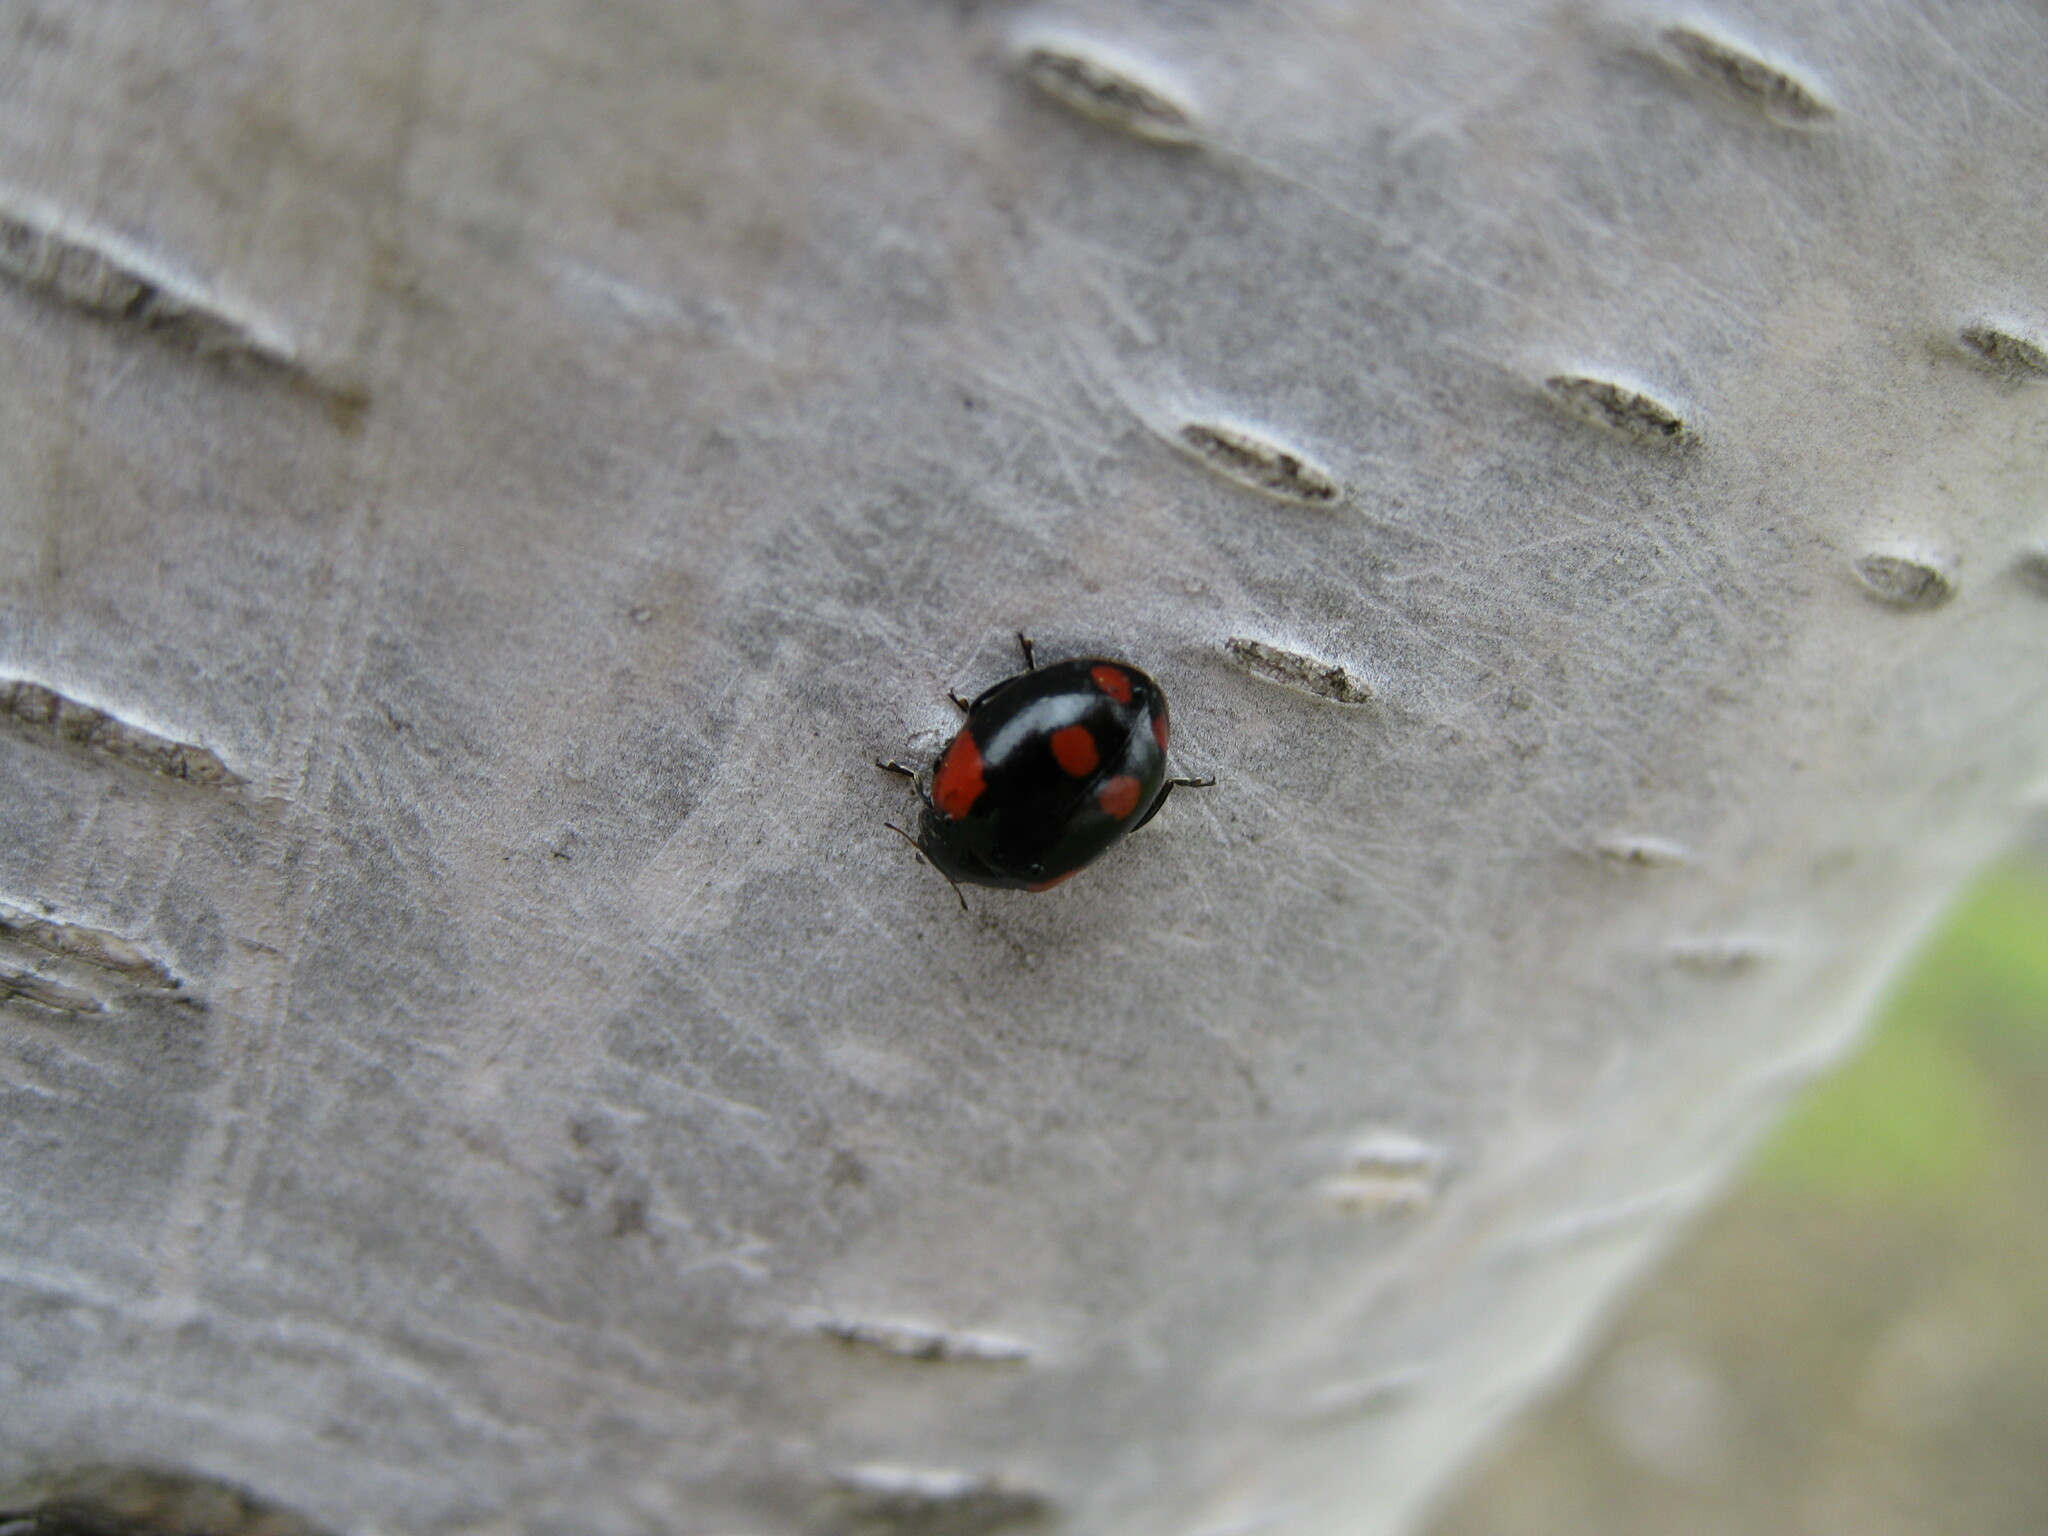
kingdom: Animalia
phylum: Arthropoda
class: Insecta
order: Coleoptera
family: Coccinellidae
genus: Adalia
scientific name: Adalia bipunctata
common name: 2-spot ladybird
